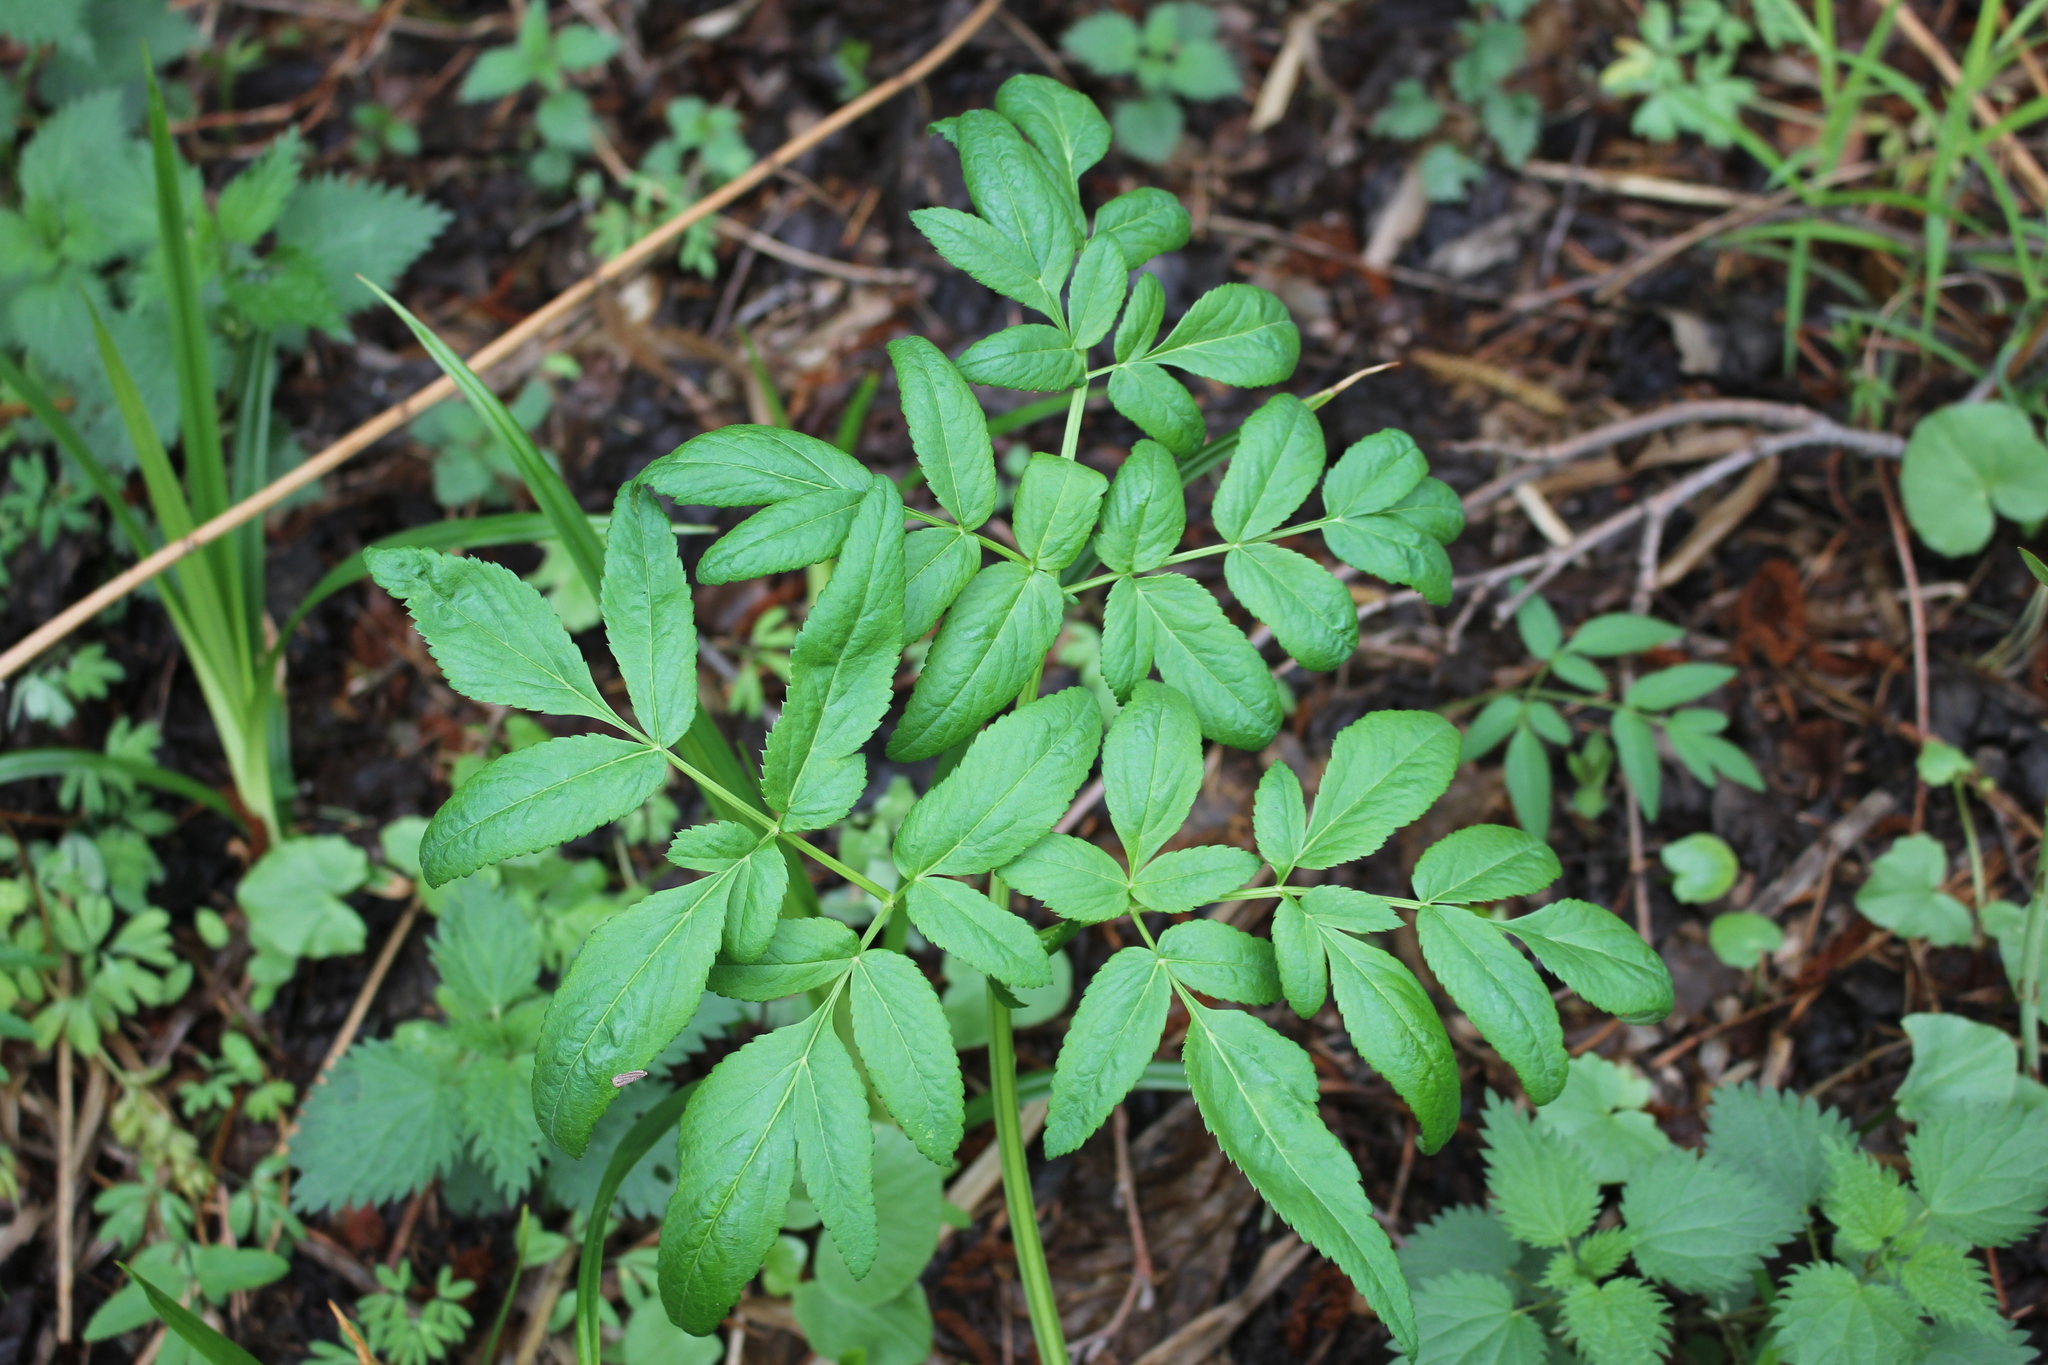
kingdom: Plantae
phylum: Tracheophyta
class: Magnoliopsida
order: Apiales
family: Apiaceae
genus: Angelica
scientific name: Angelica sylvestris
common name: Wild angelica
